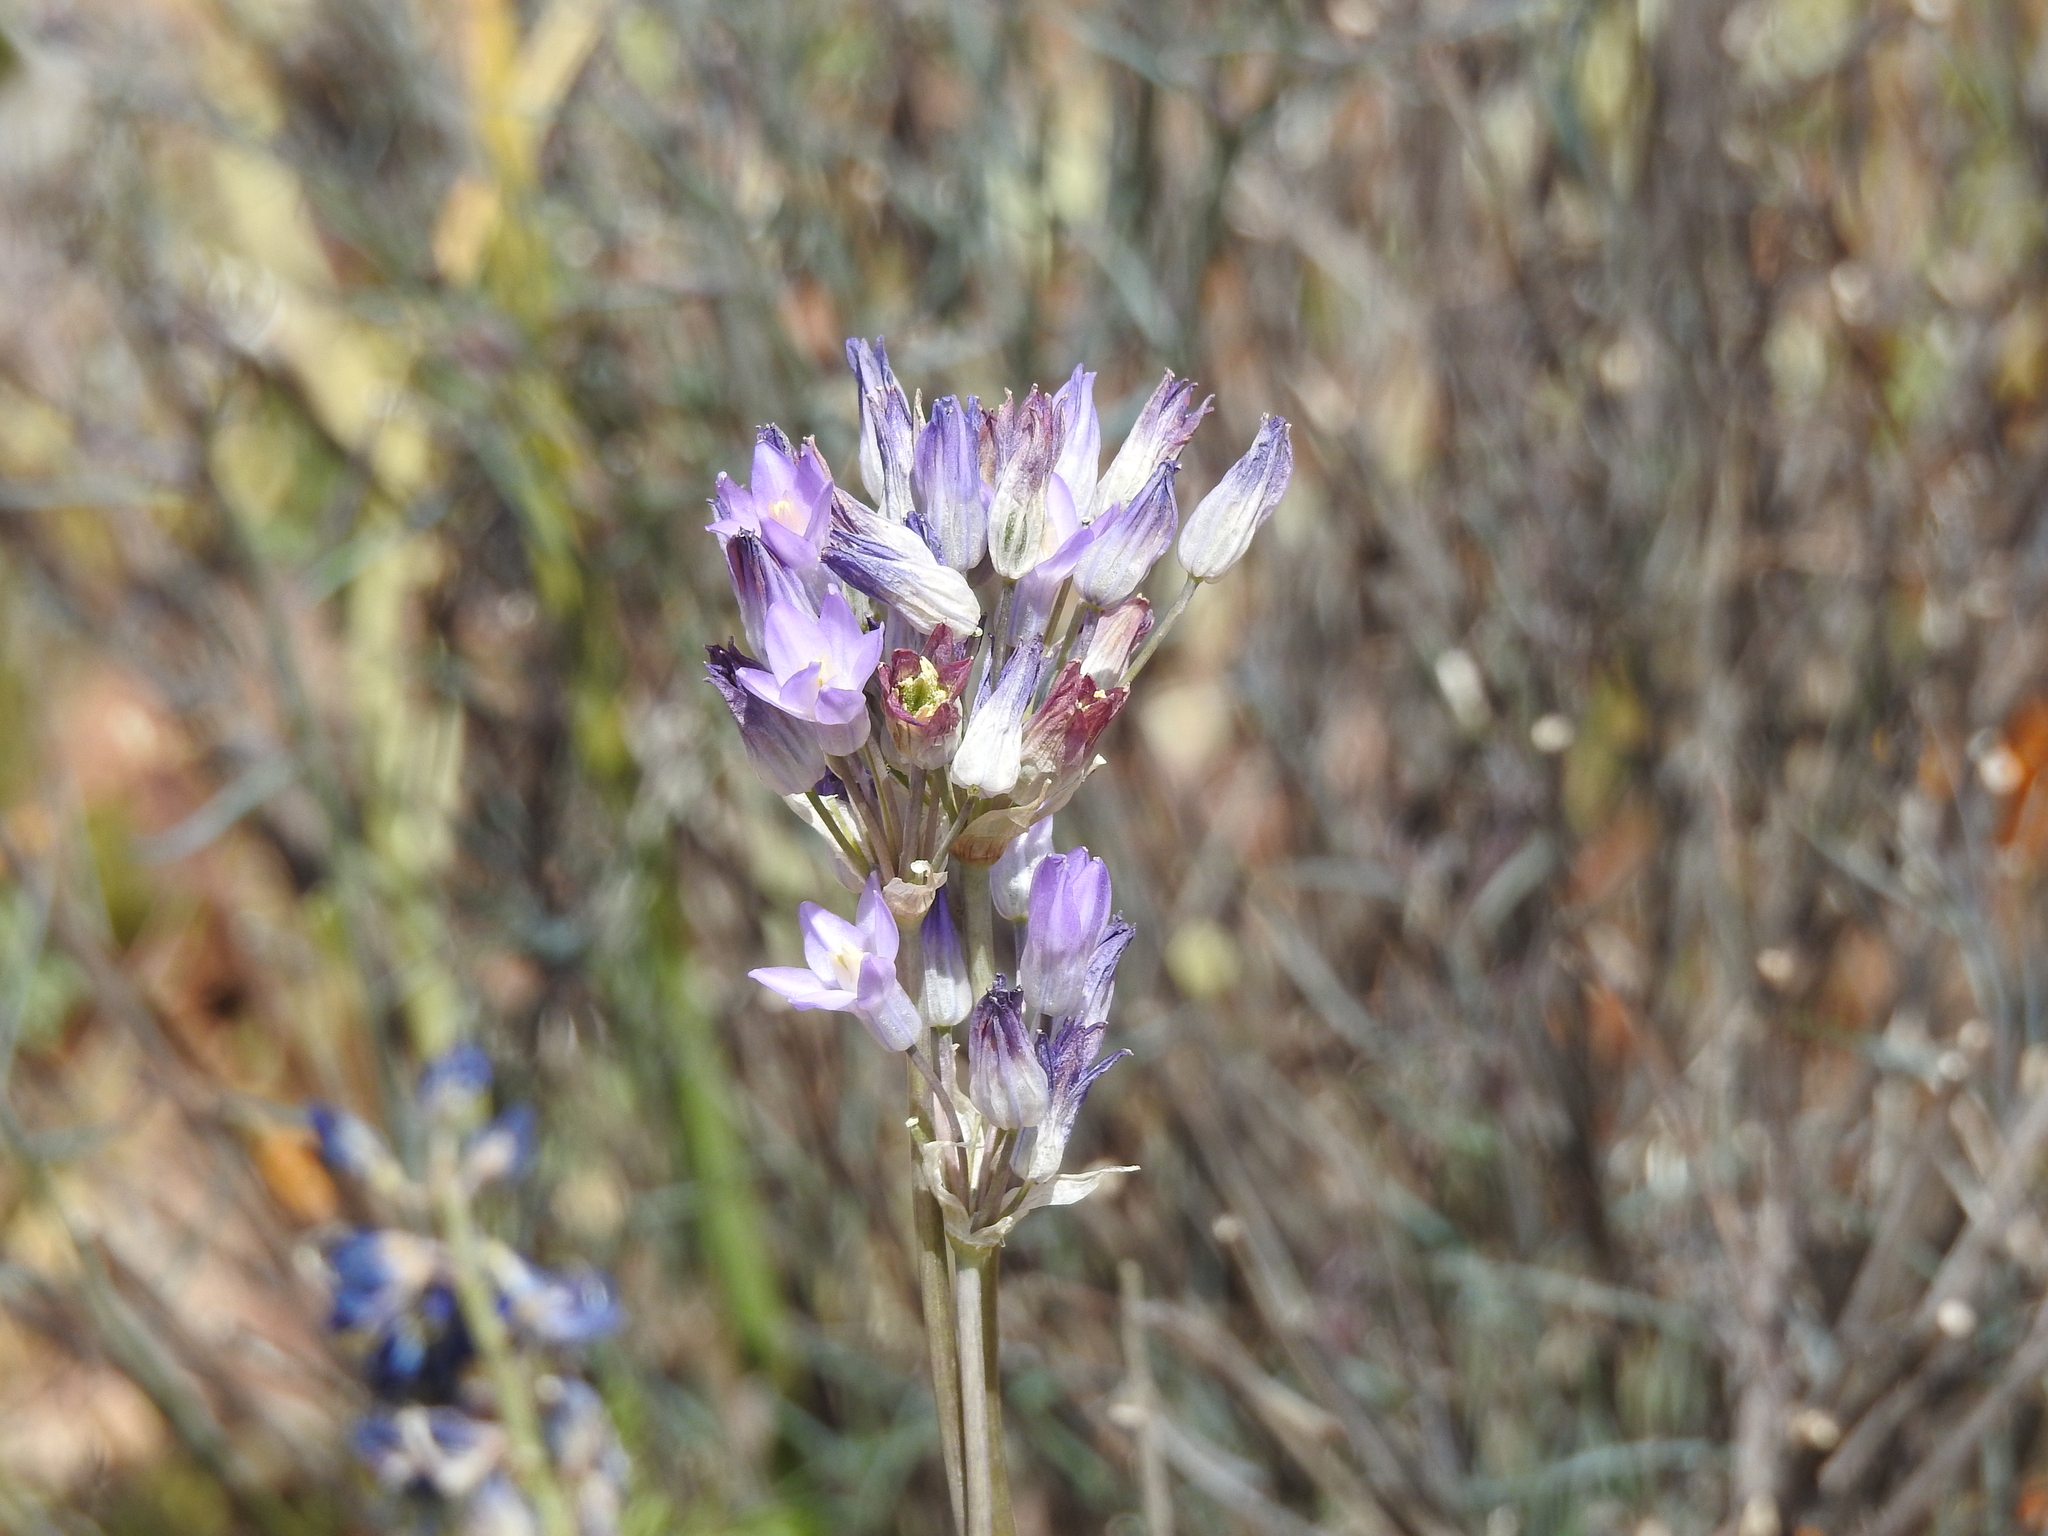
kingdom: Plantae
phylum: Tracheophyta
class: Liliopsida
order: Asparagales
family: Asparagaceae
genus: Dipterostemon
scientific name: Dipterostemon capitatus
